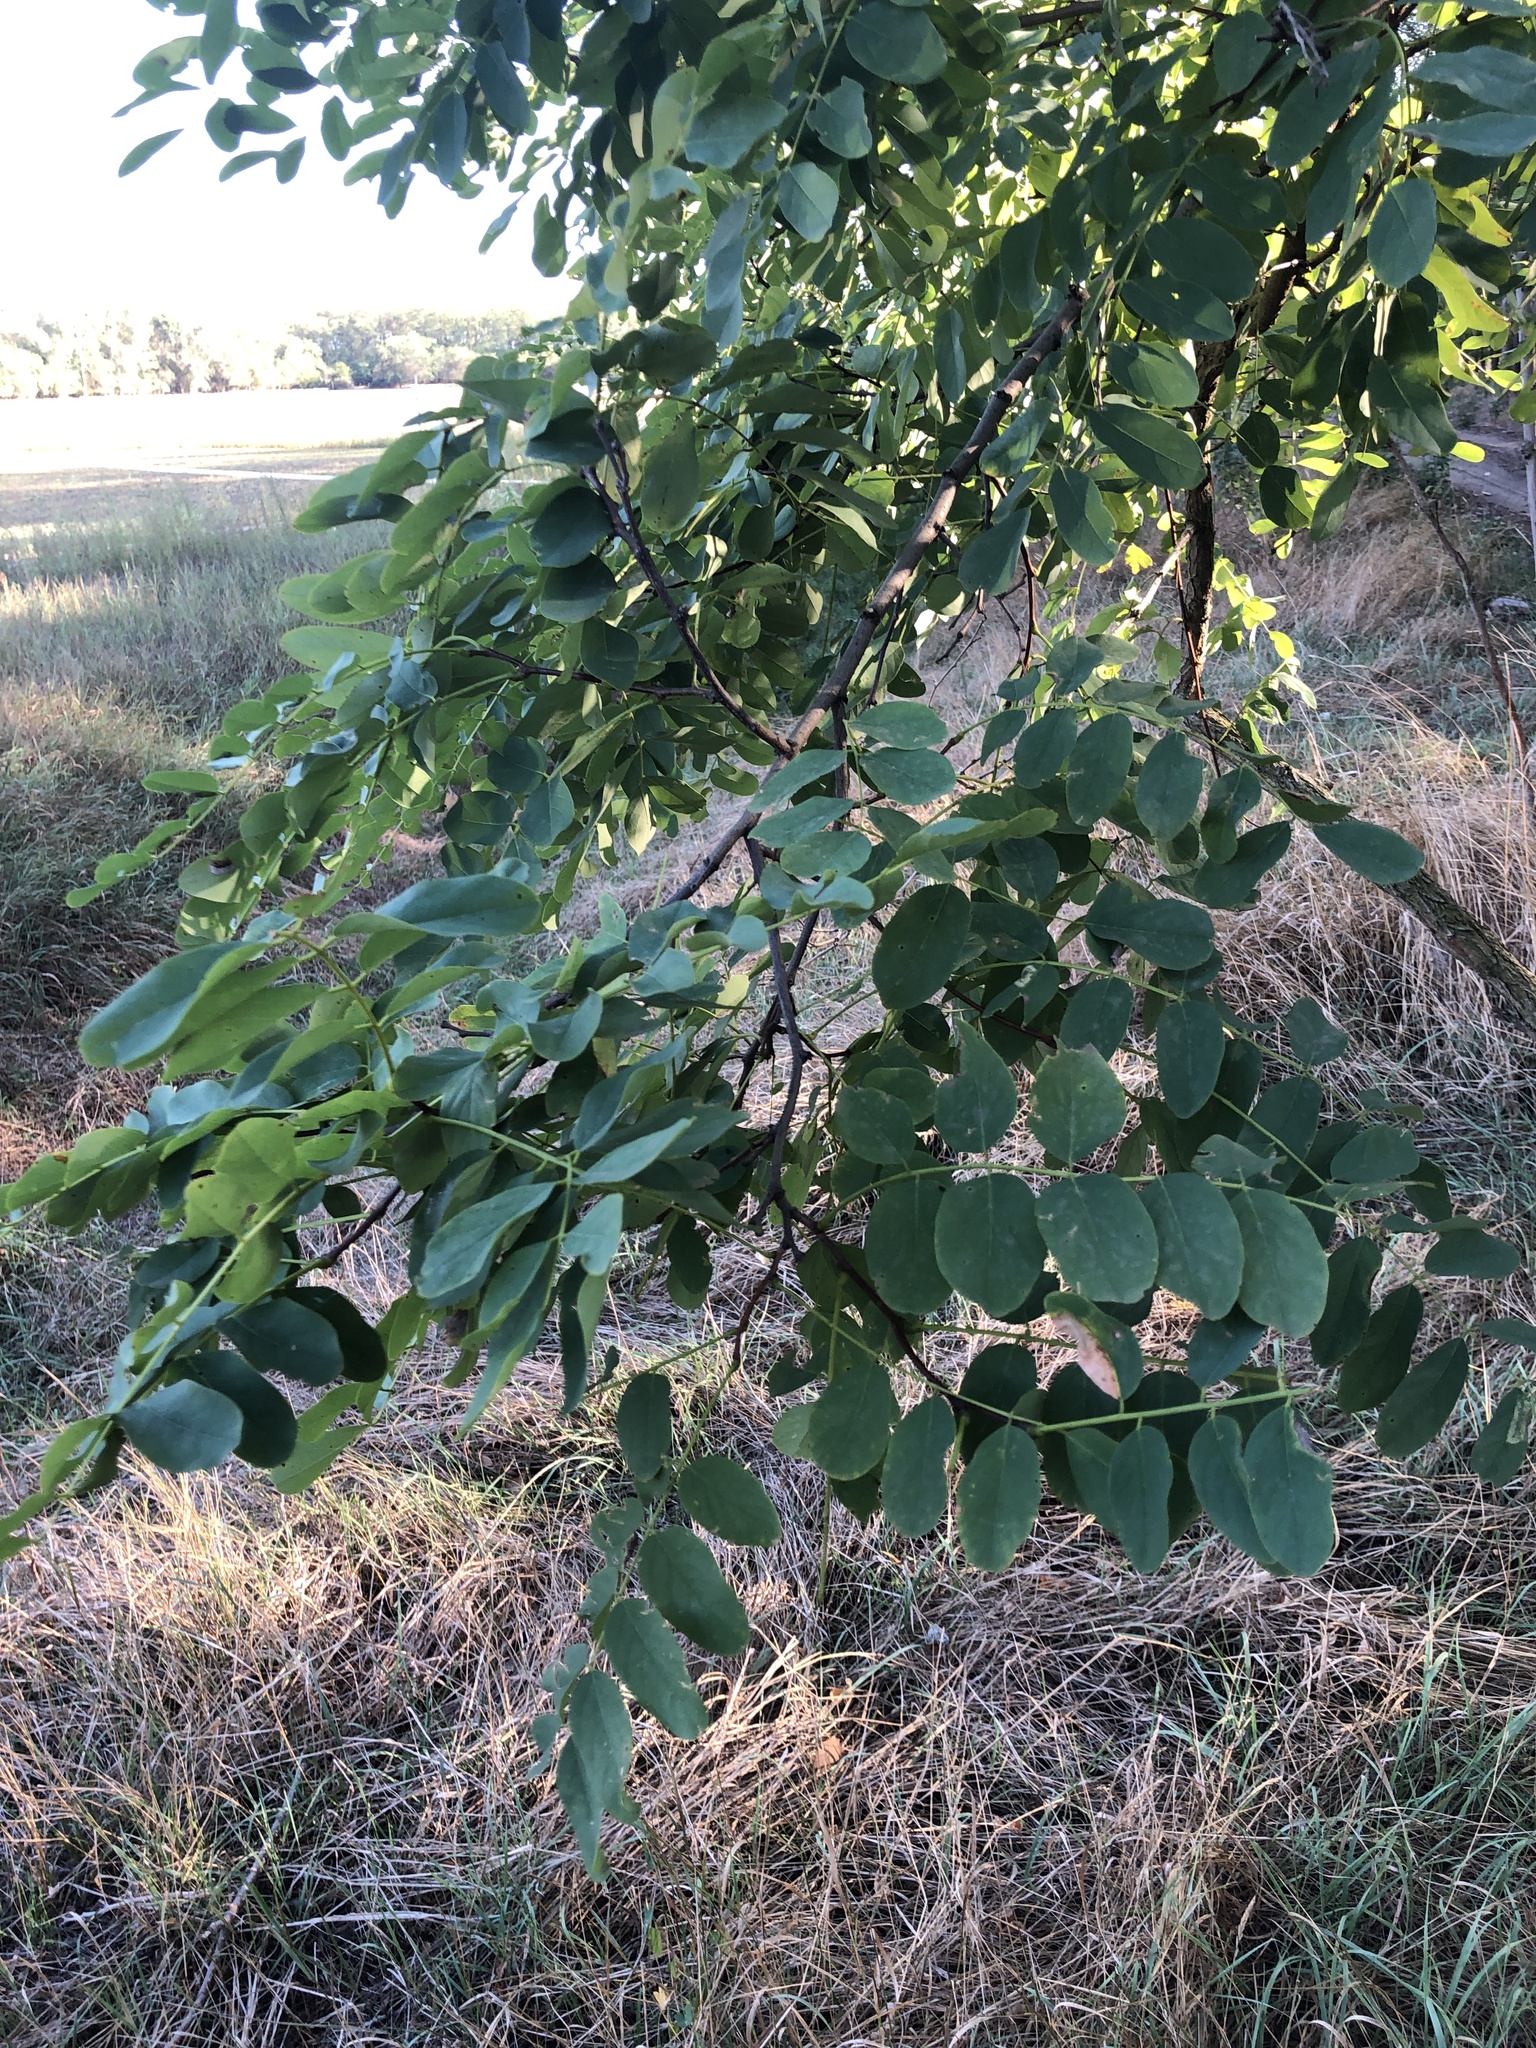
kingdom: Plantae
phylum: Tracheophyta
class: Magnoliopsida
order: Fabales
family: Fabaceae
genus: Robinia
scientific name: Robinia pseudoacacia
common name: Black locust
